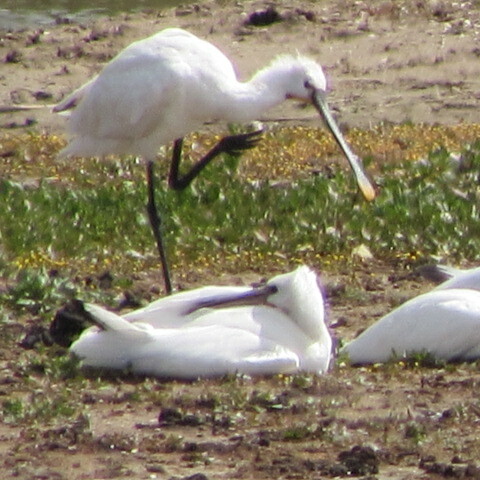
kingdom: Animalia
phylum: Chordata
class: Aves
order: Pelecaniformes
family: Threskiornithidae
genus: Platalea
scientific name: Platalea leucorodia
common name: Eurasian spoonbill
